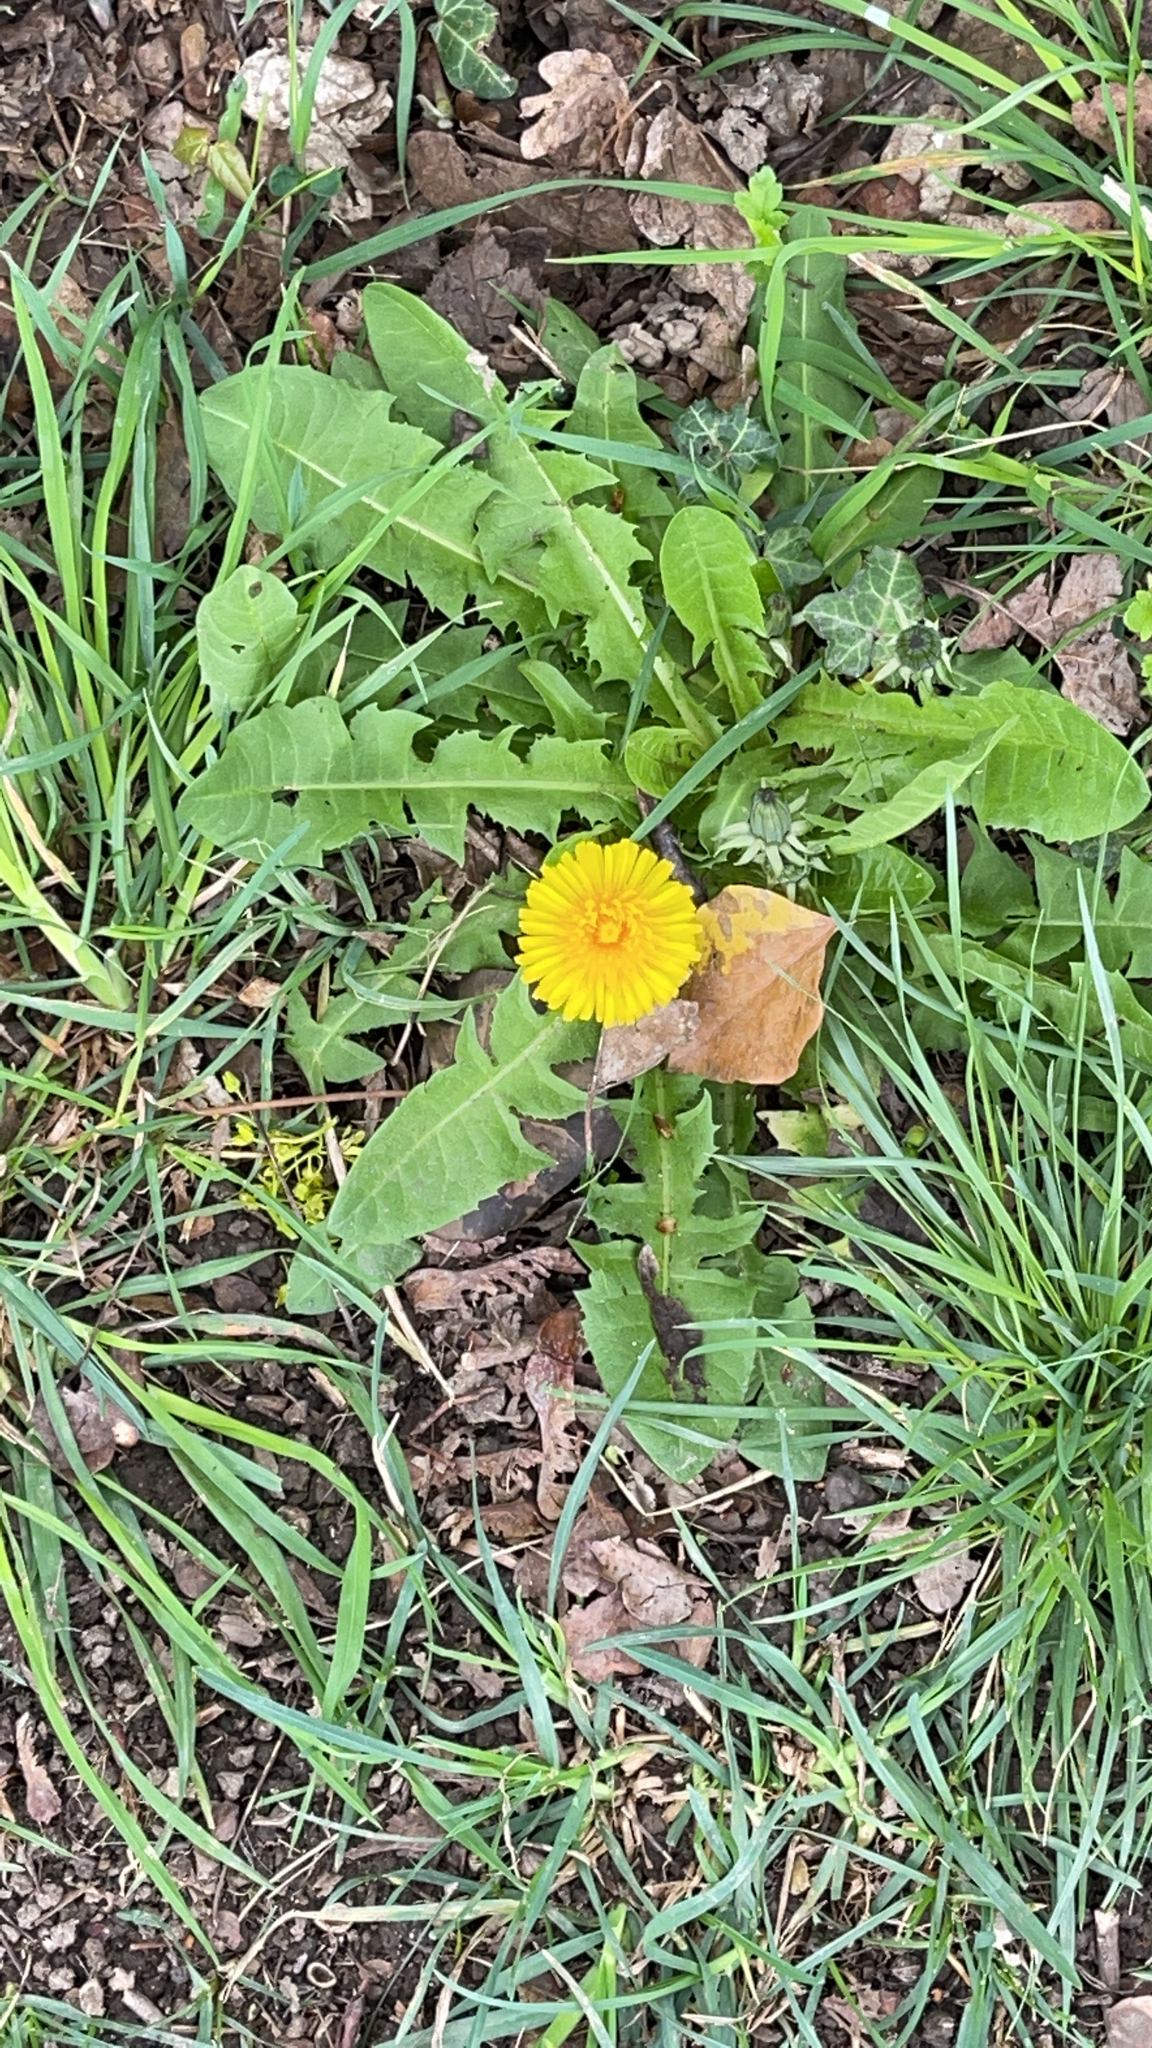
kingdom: Plantae
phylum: Tracheophyta
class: Magnoliopsida
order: Asterales
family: Asteraceae
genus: Taraxacum
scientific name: Taraxacum officinale
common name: Common dandelion
